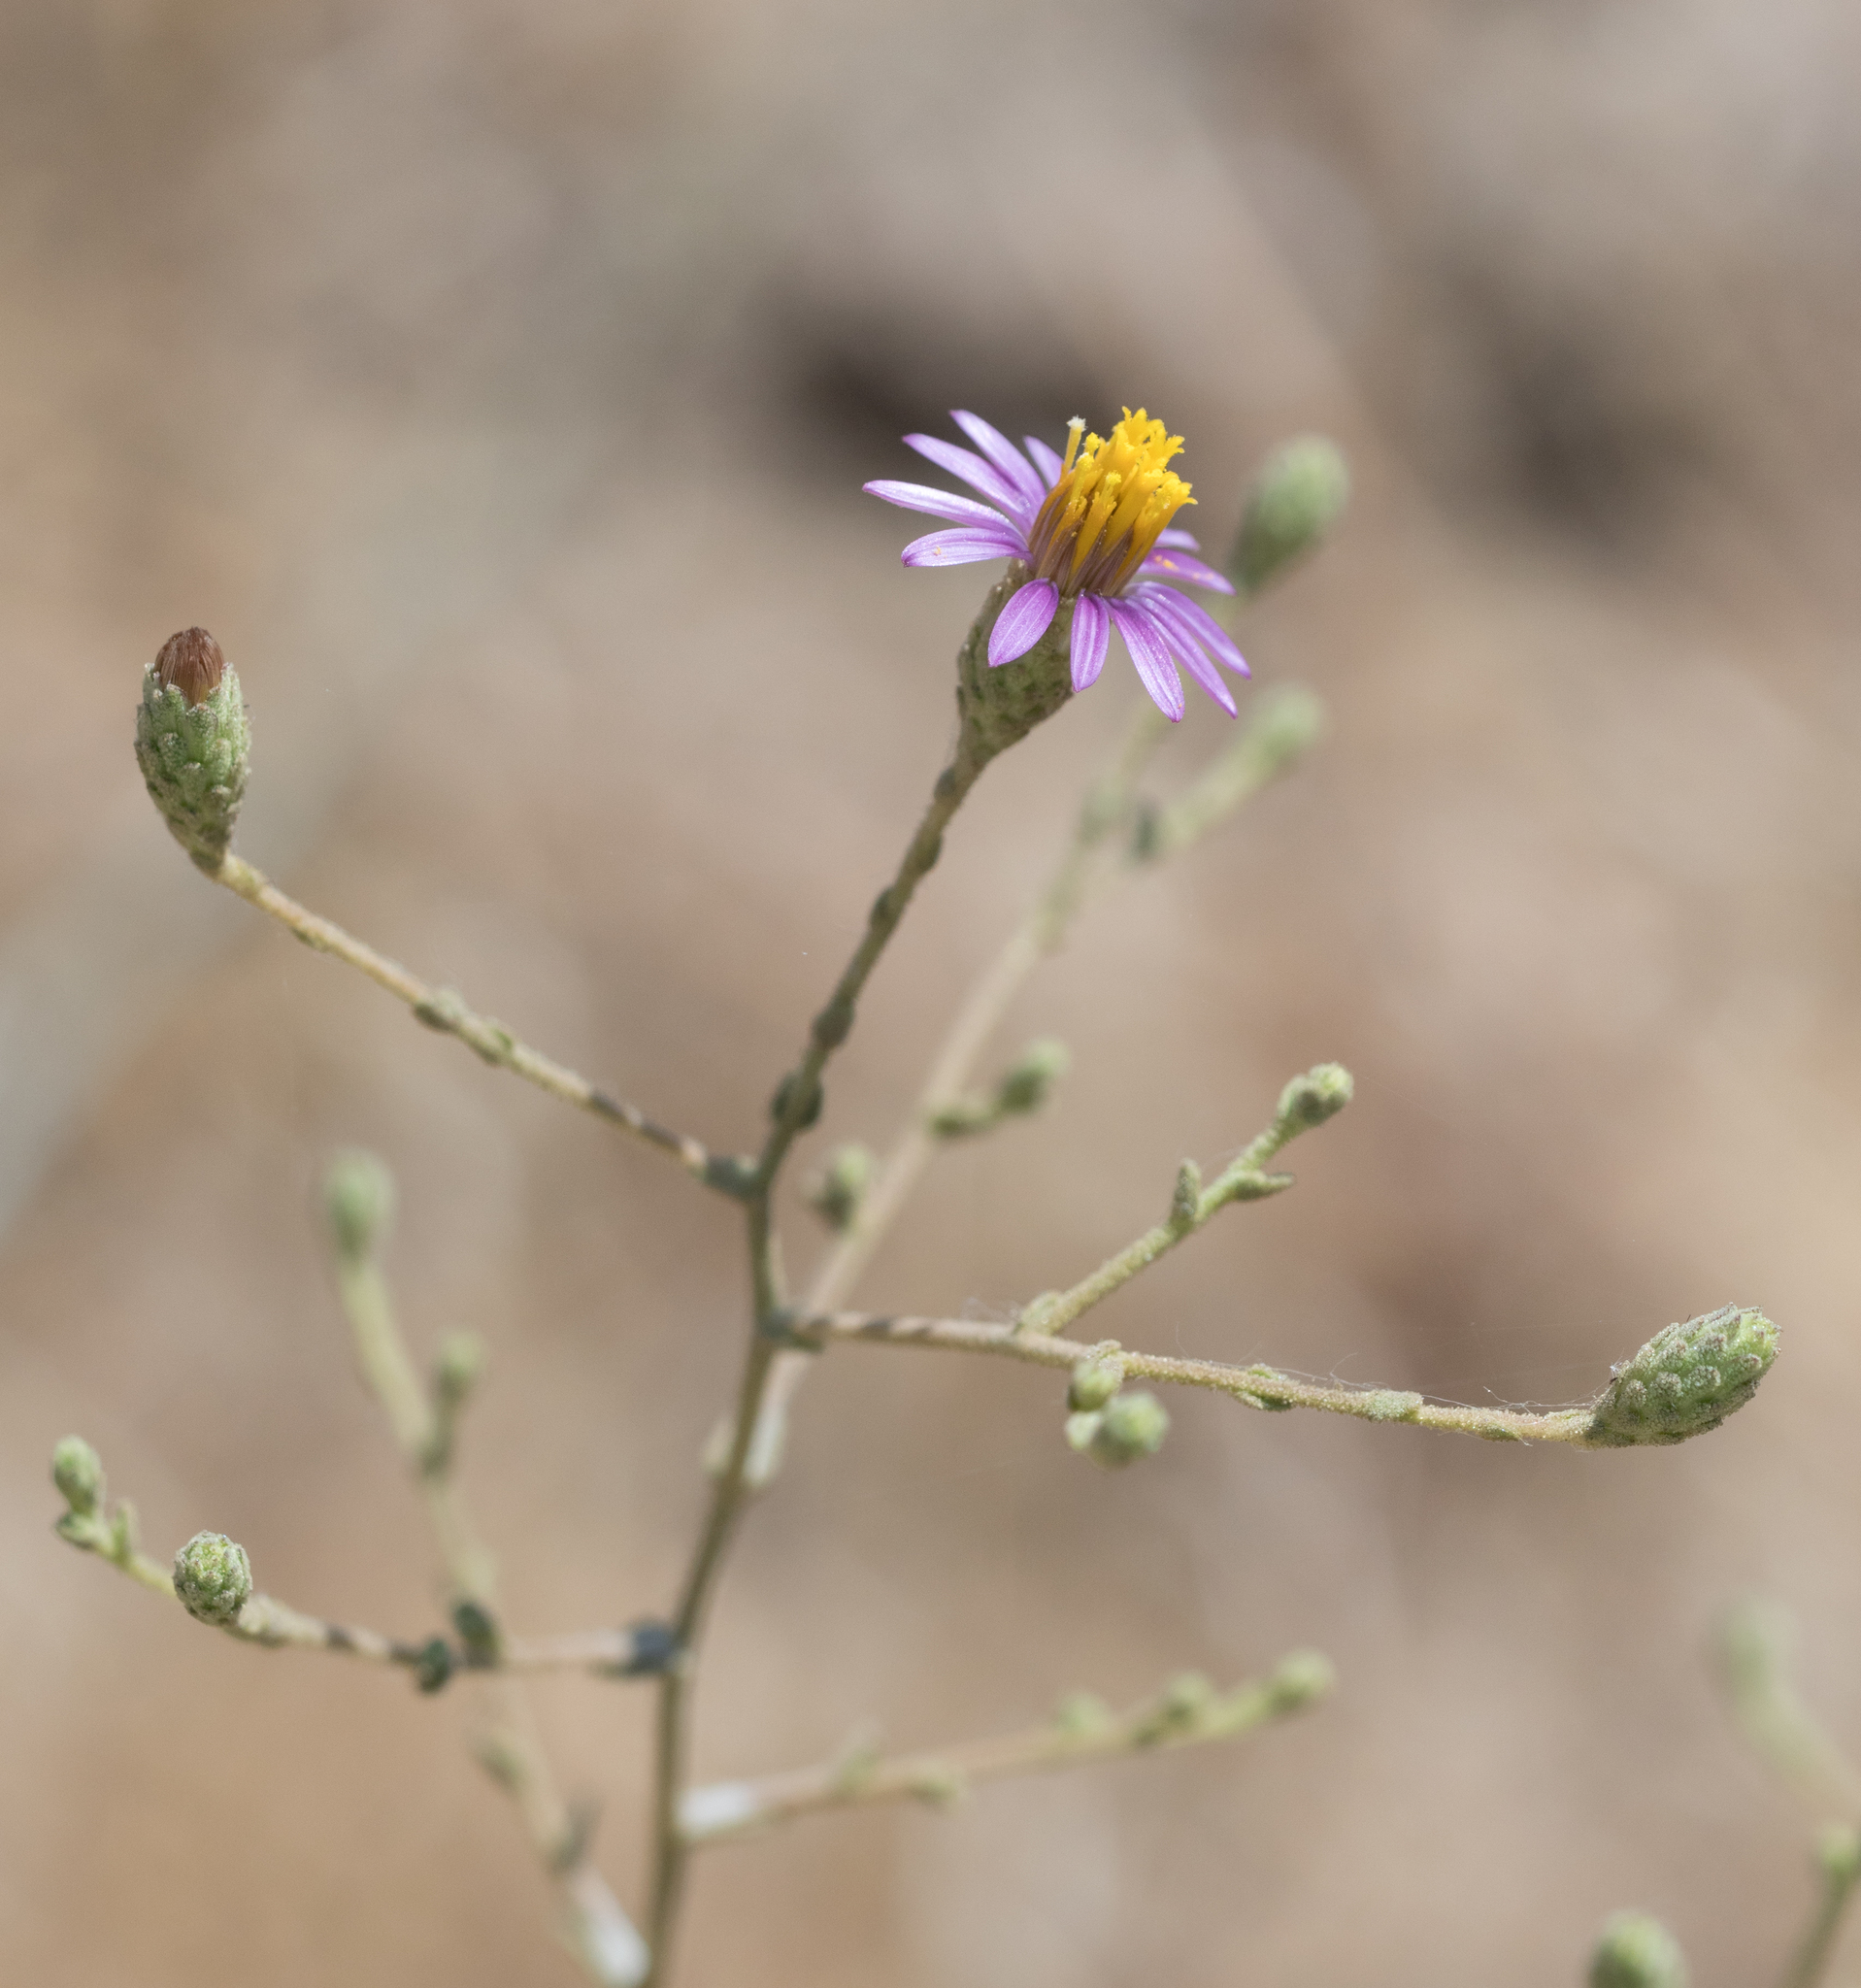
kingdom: Plantae
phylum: Tracheophyta
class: Magnoliopsida
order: Asterales
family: Asteraceae
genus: Corethrogyne
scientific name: Corethrogyne filaginifolia
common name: Sand-aster
